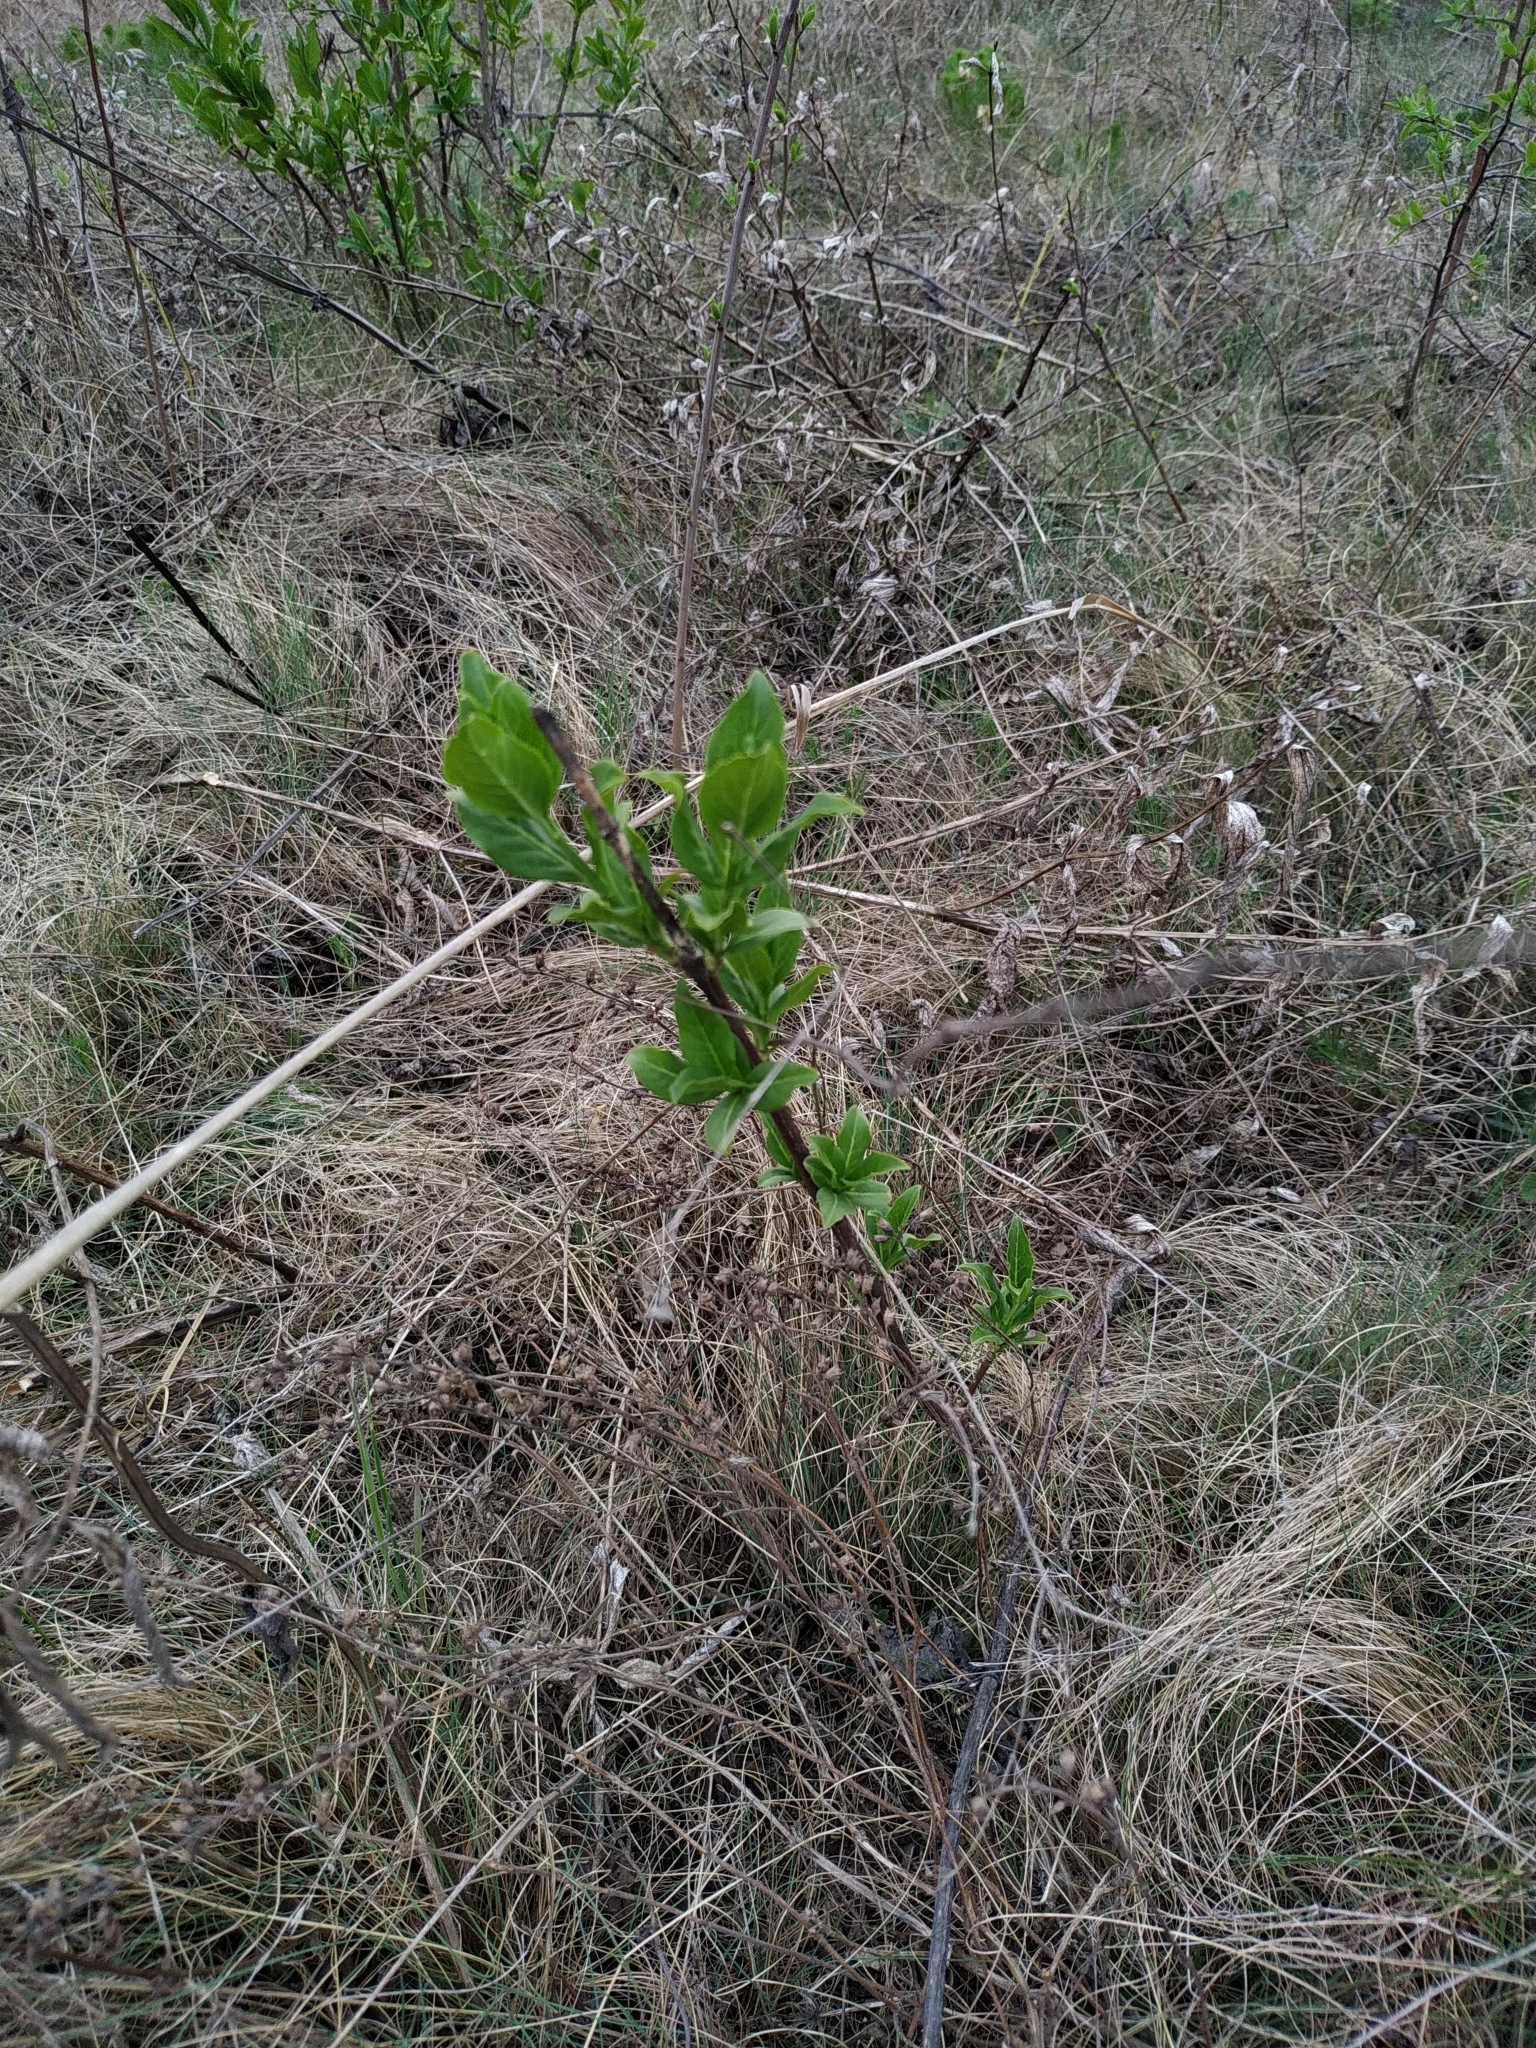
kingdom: Plantae
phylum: Tracheophyta
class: Magnoliopsida
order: Celastrales
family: Celastraceae
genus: Euonymus
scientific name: Euonymus europaeus
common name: Spindle
